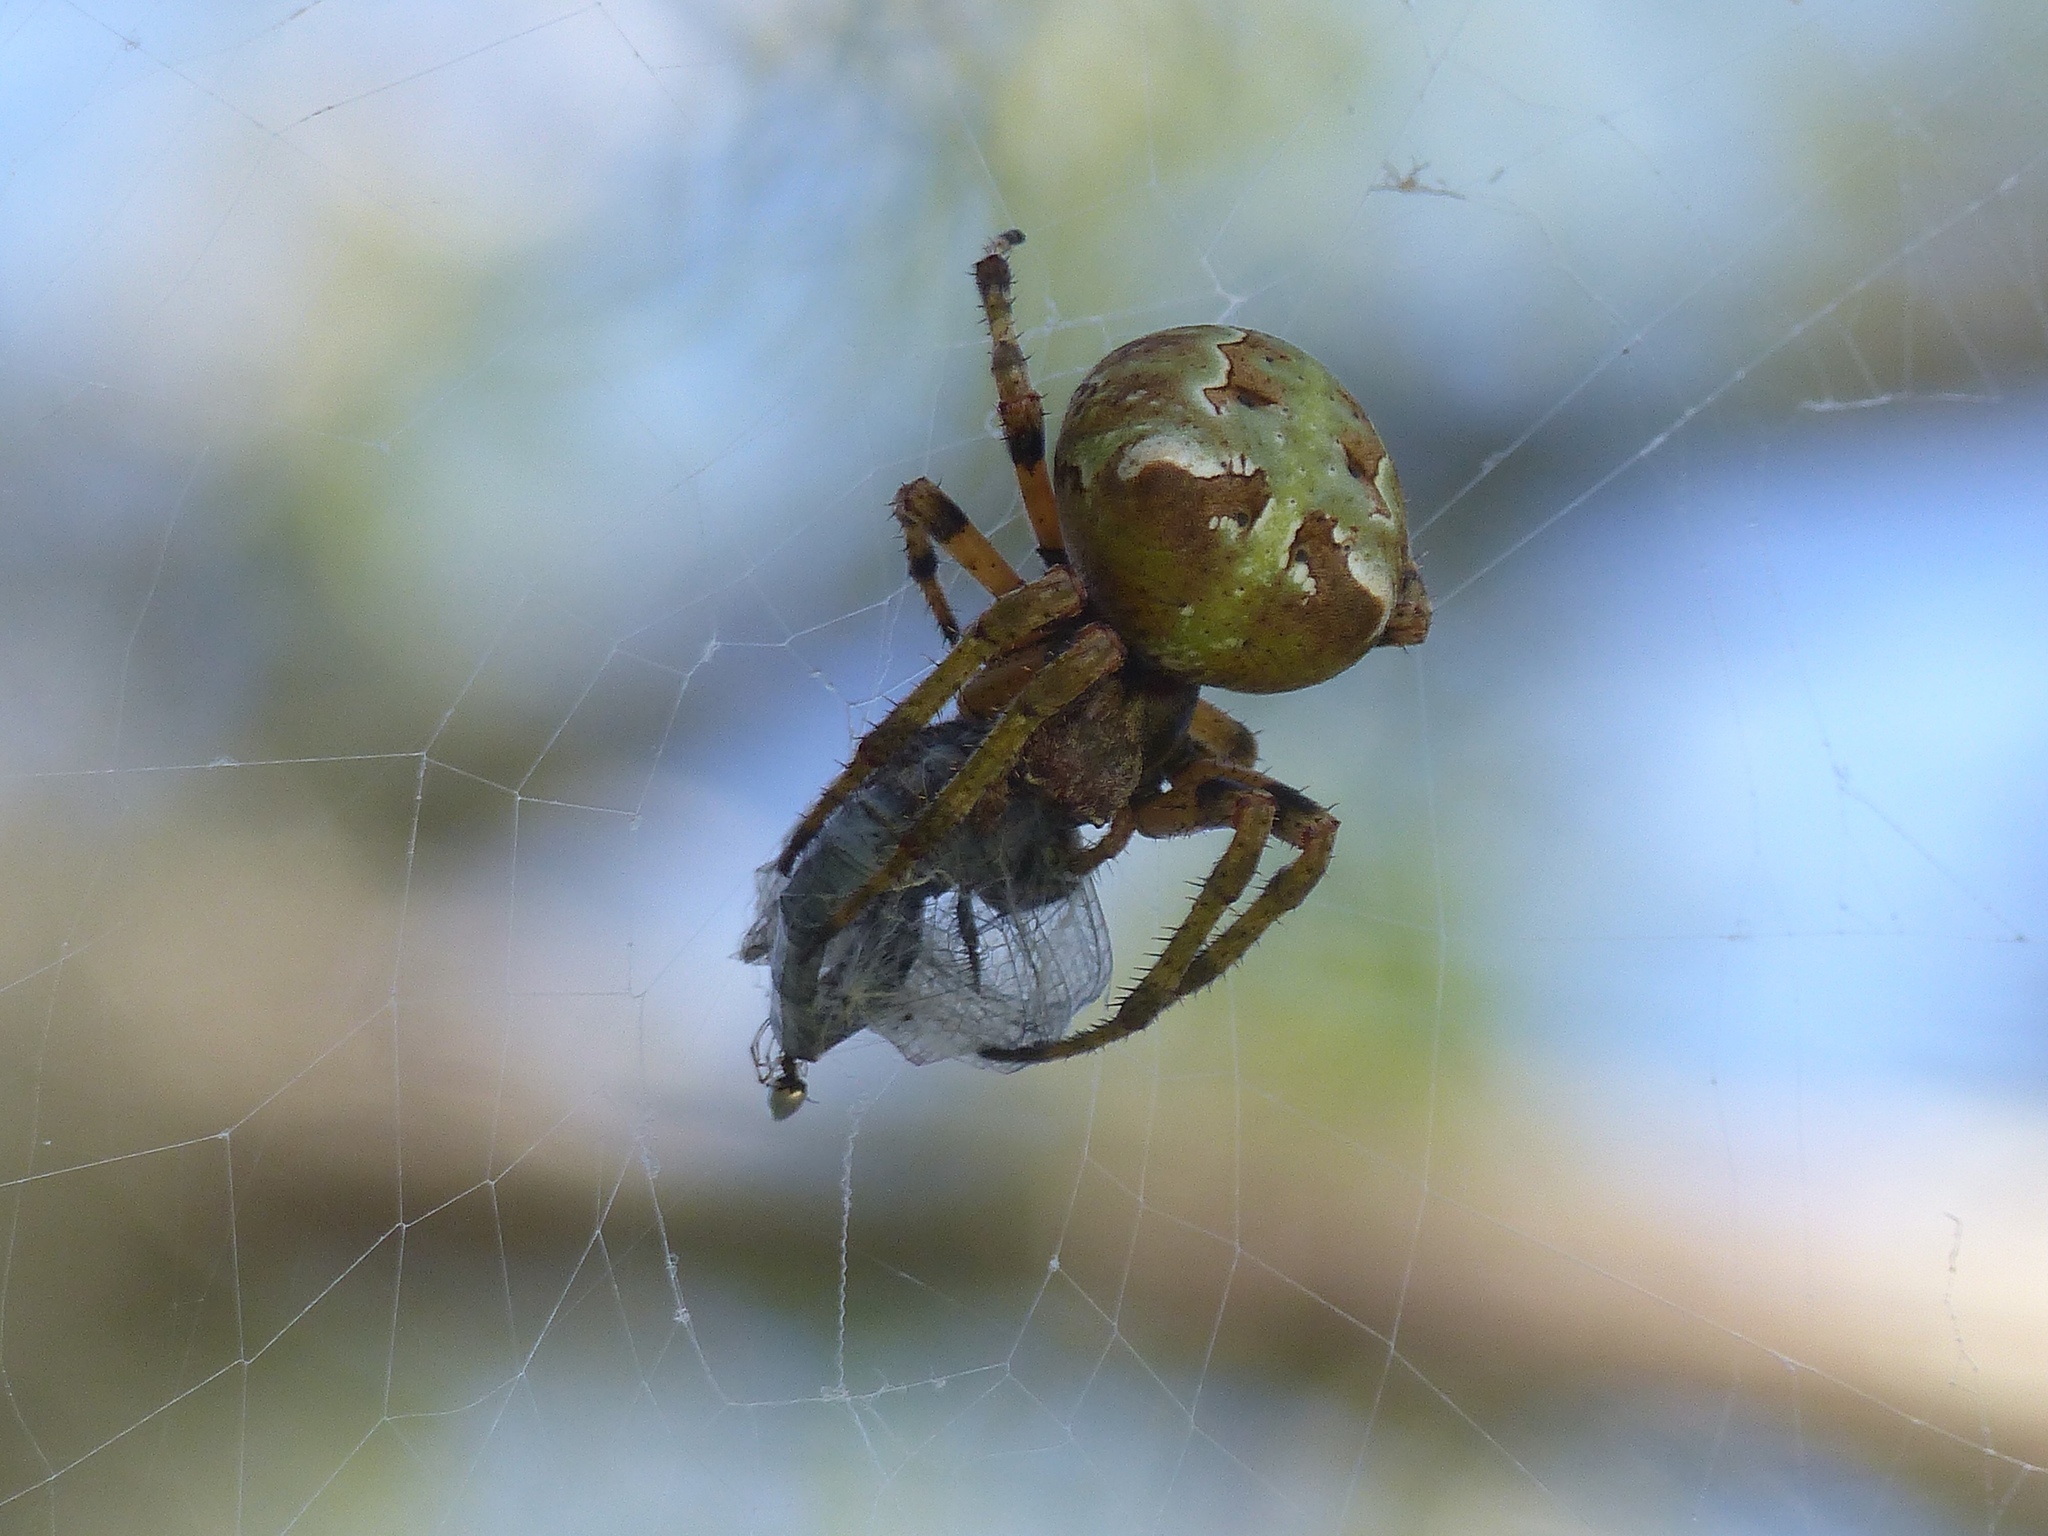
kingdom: Animalia
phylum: Arthropoda
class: Arachnida
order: Araneae
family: Araneidae
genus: Araneus
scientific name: Araneus bicentenarius
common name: Giant lichen orbweaver
